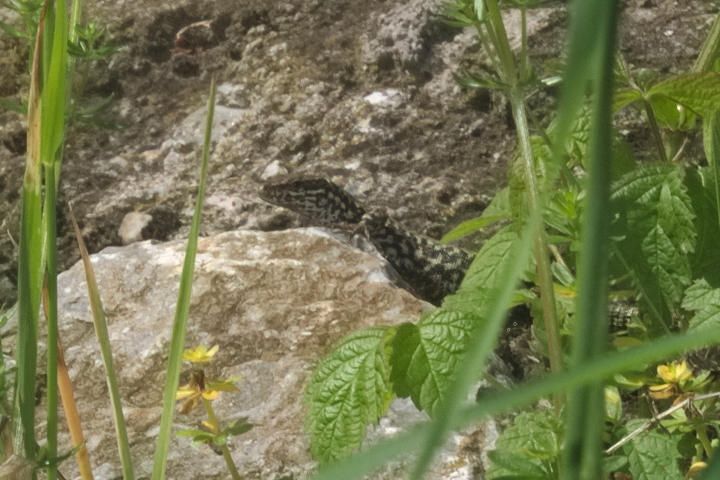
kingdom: Animalia
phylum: Chordata
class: Squamata
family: Lacertidae
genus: Podarcis
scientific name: Podarcis muralis
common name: Common wall lizard
